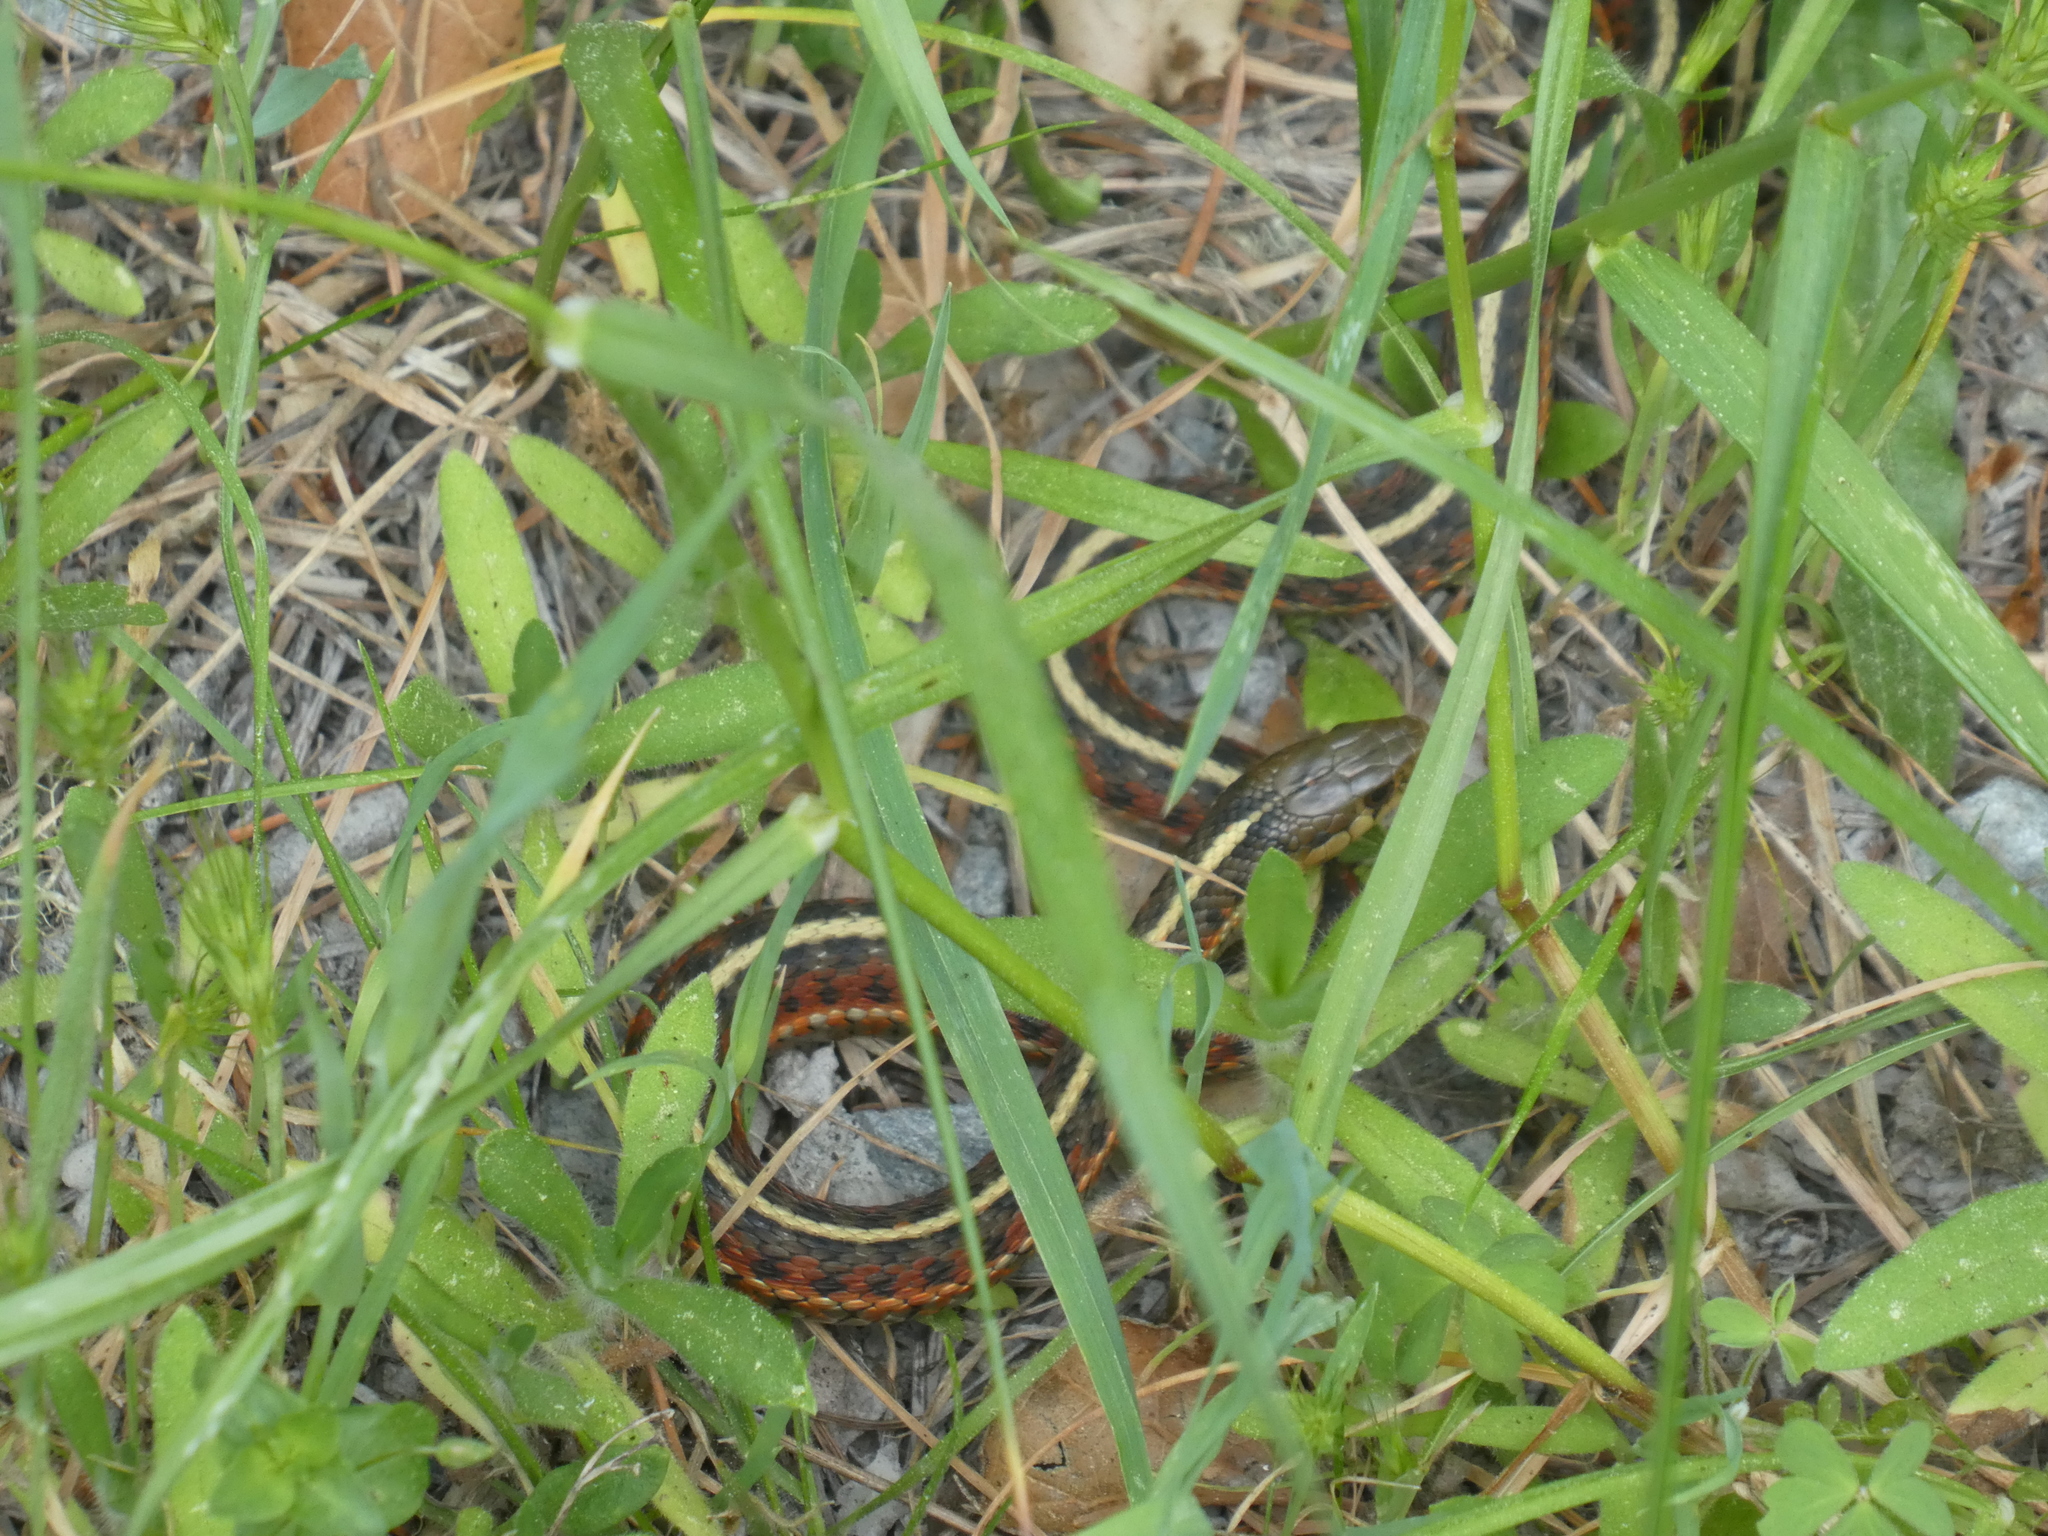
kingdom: Animalia
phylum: Chordata
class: Squamata
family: Colubridae
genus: Thamnophis
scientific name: Thamnophis elegans
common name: Western terrestrial garter snake
